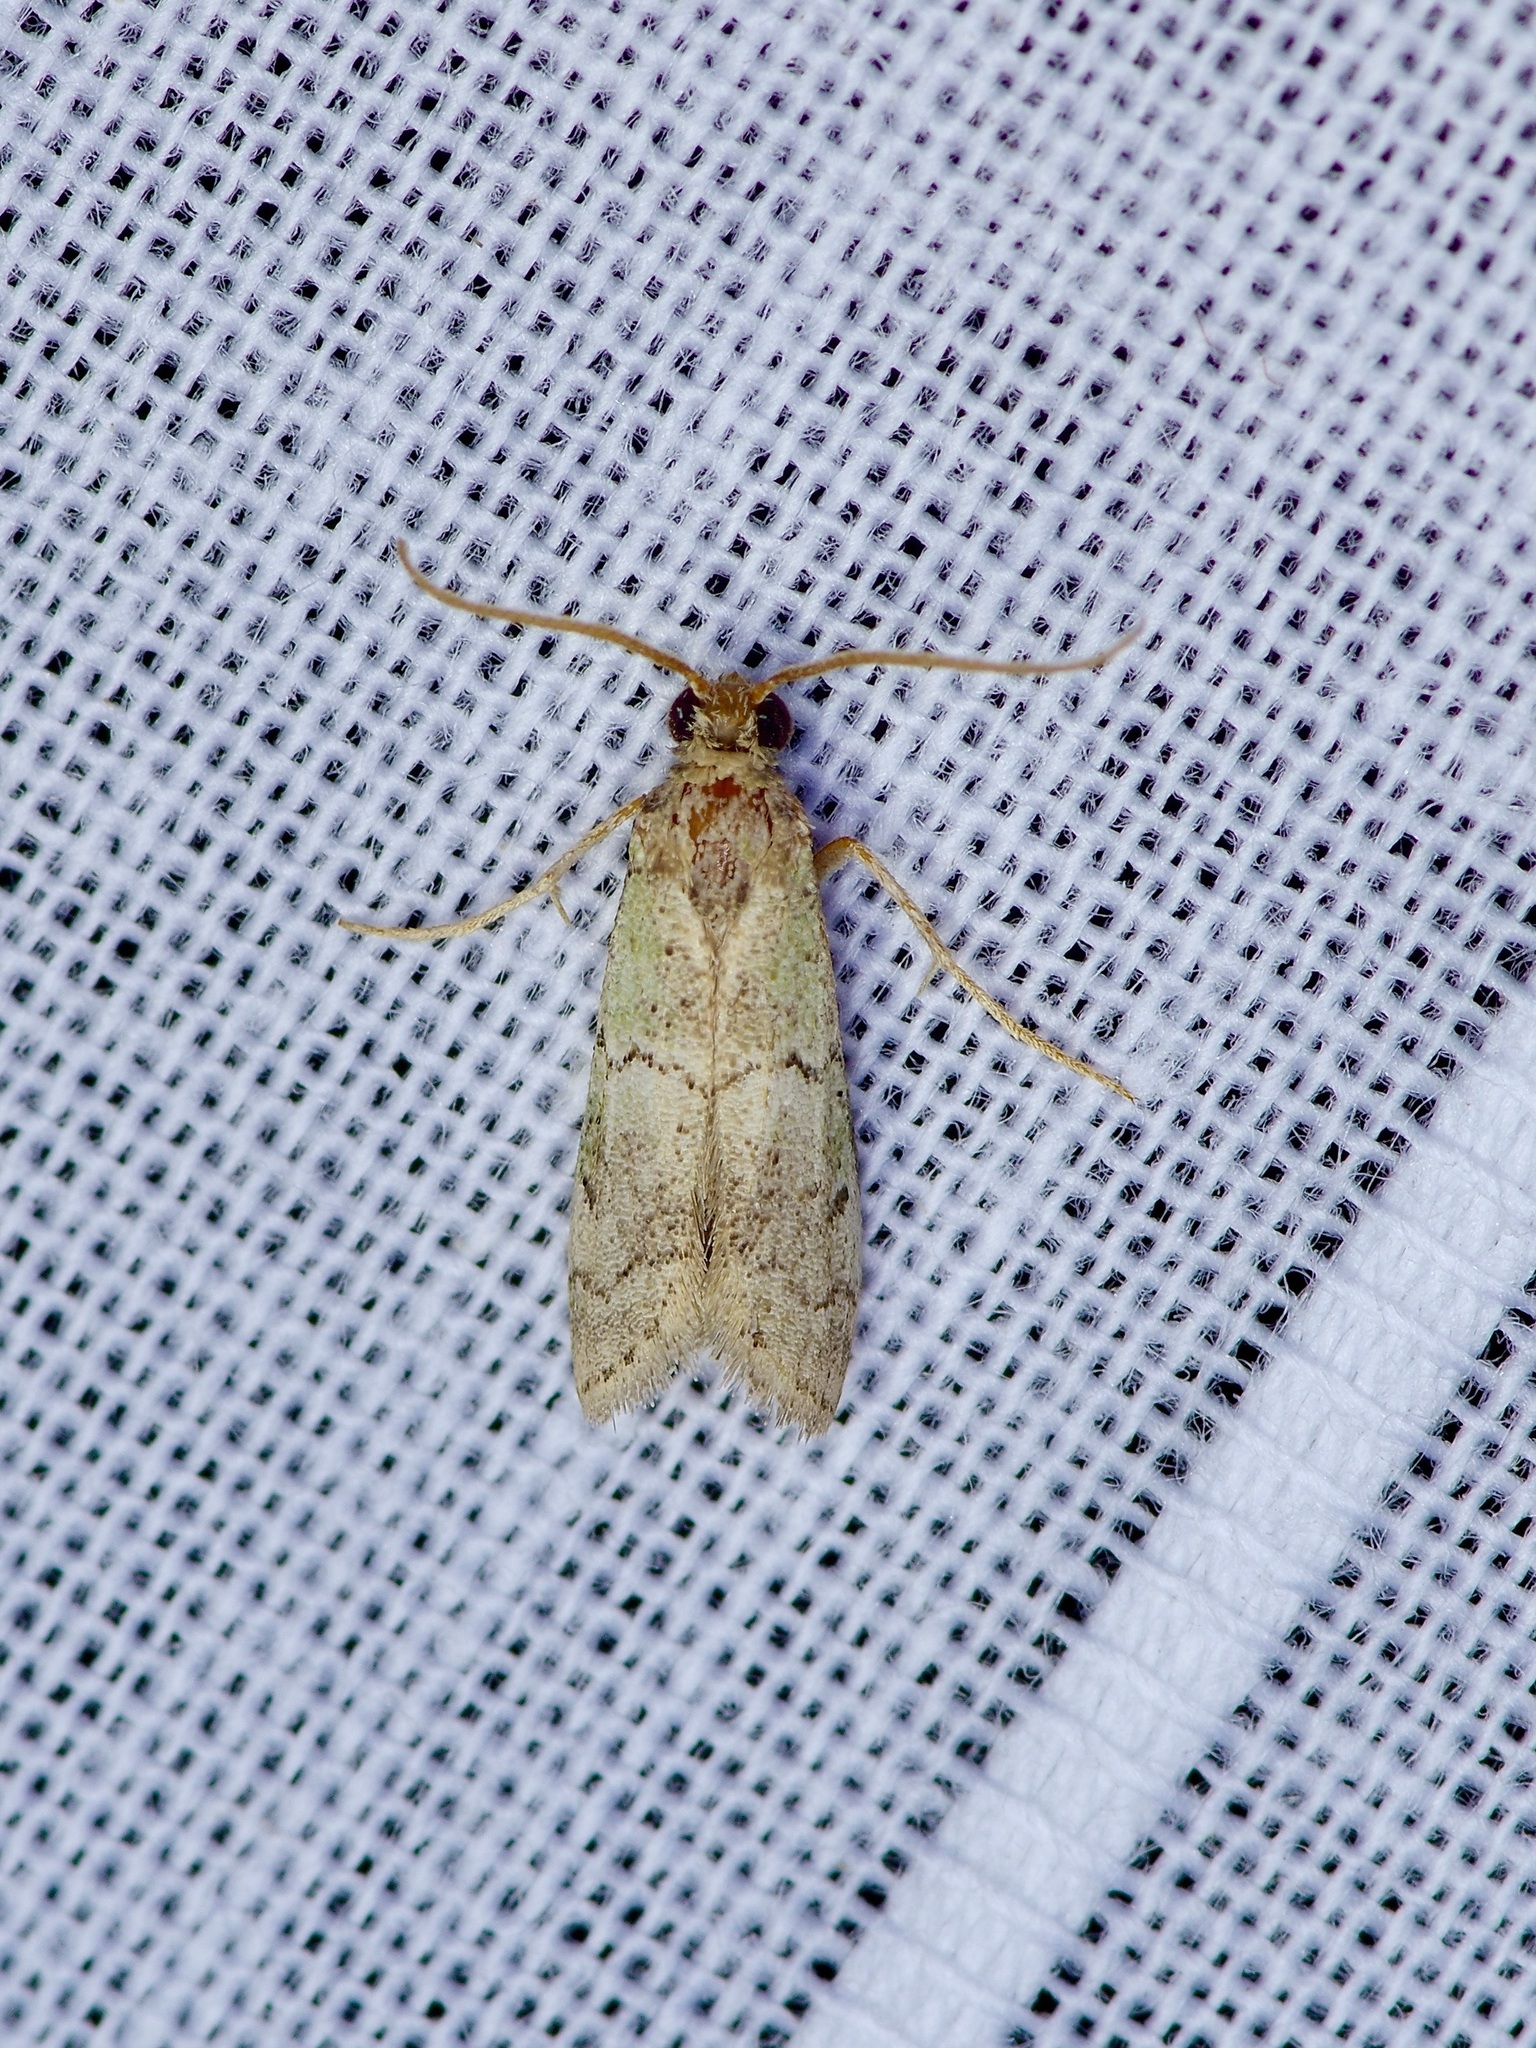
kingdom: Animalia
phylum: Arthropoda
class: Insecta
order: Lepidoptera
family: Pyralidae
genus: Cacotherapia
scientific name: Cacotherapia flexilinealis
